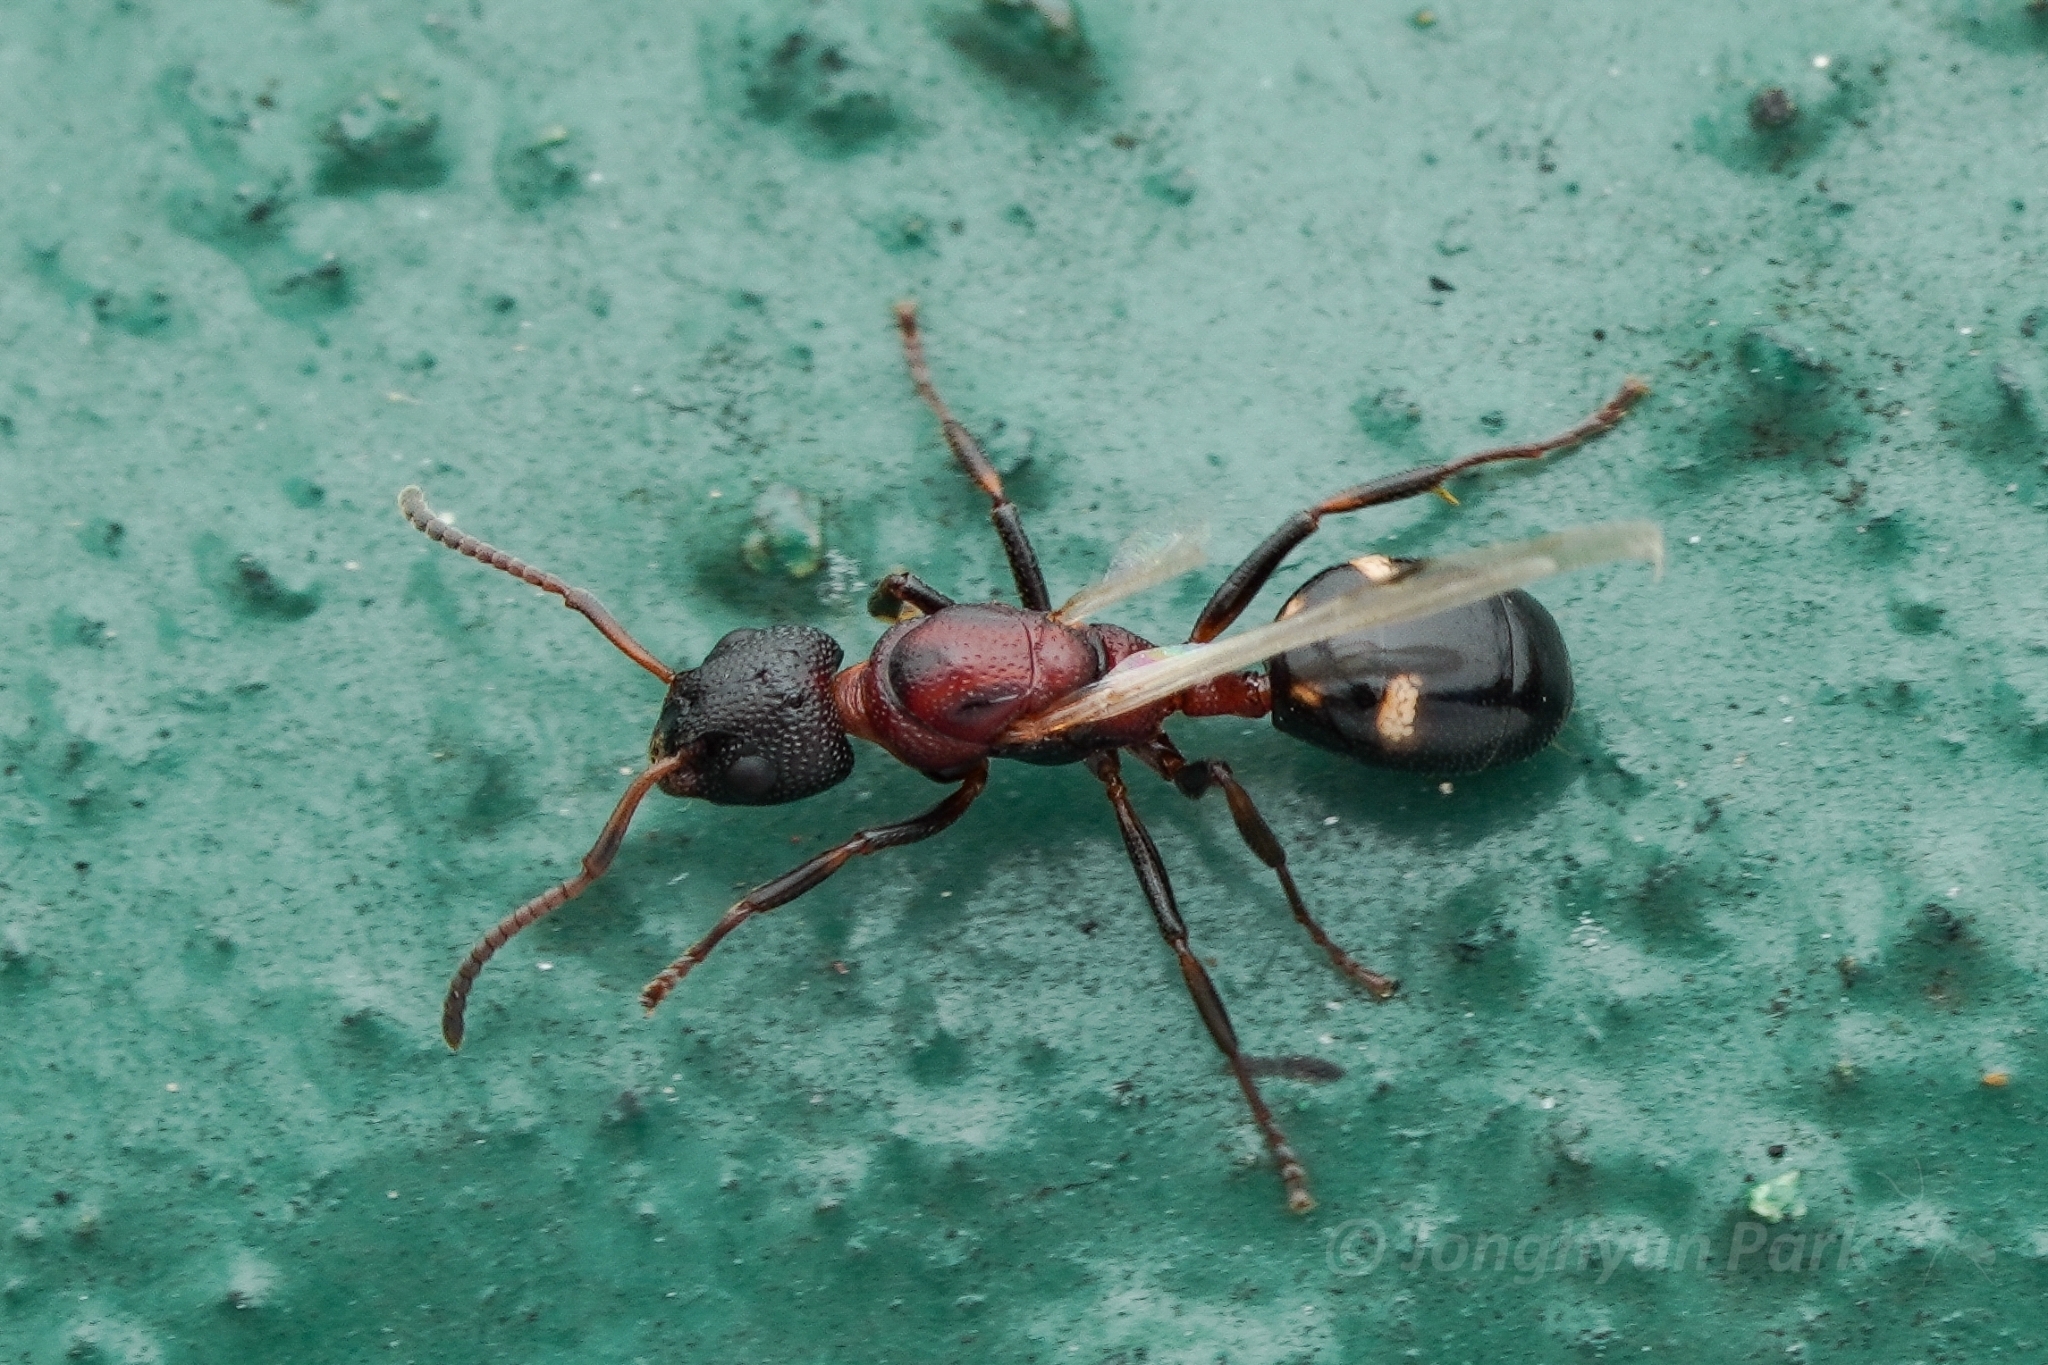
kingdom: Animalia
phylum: Arthropoda
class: Insecta
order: Hymenoptera
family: Formicidae
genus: Dolichoderus
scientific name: Dolichoderus sibiricus
